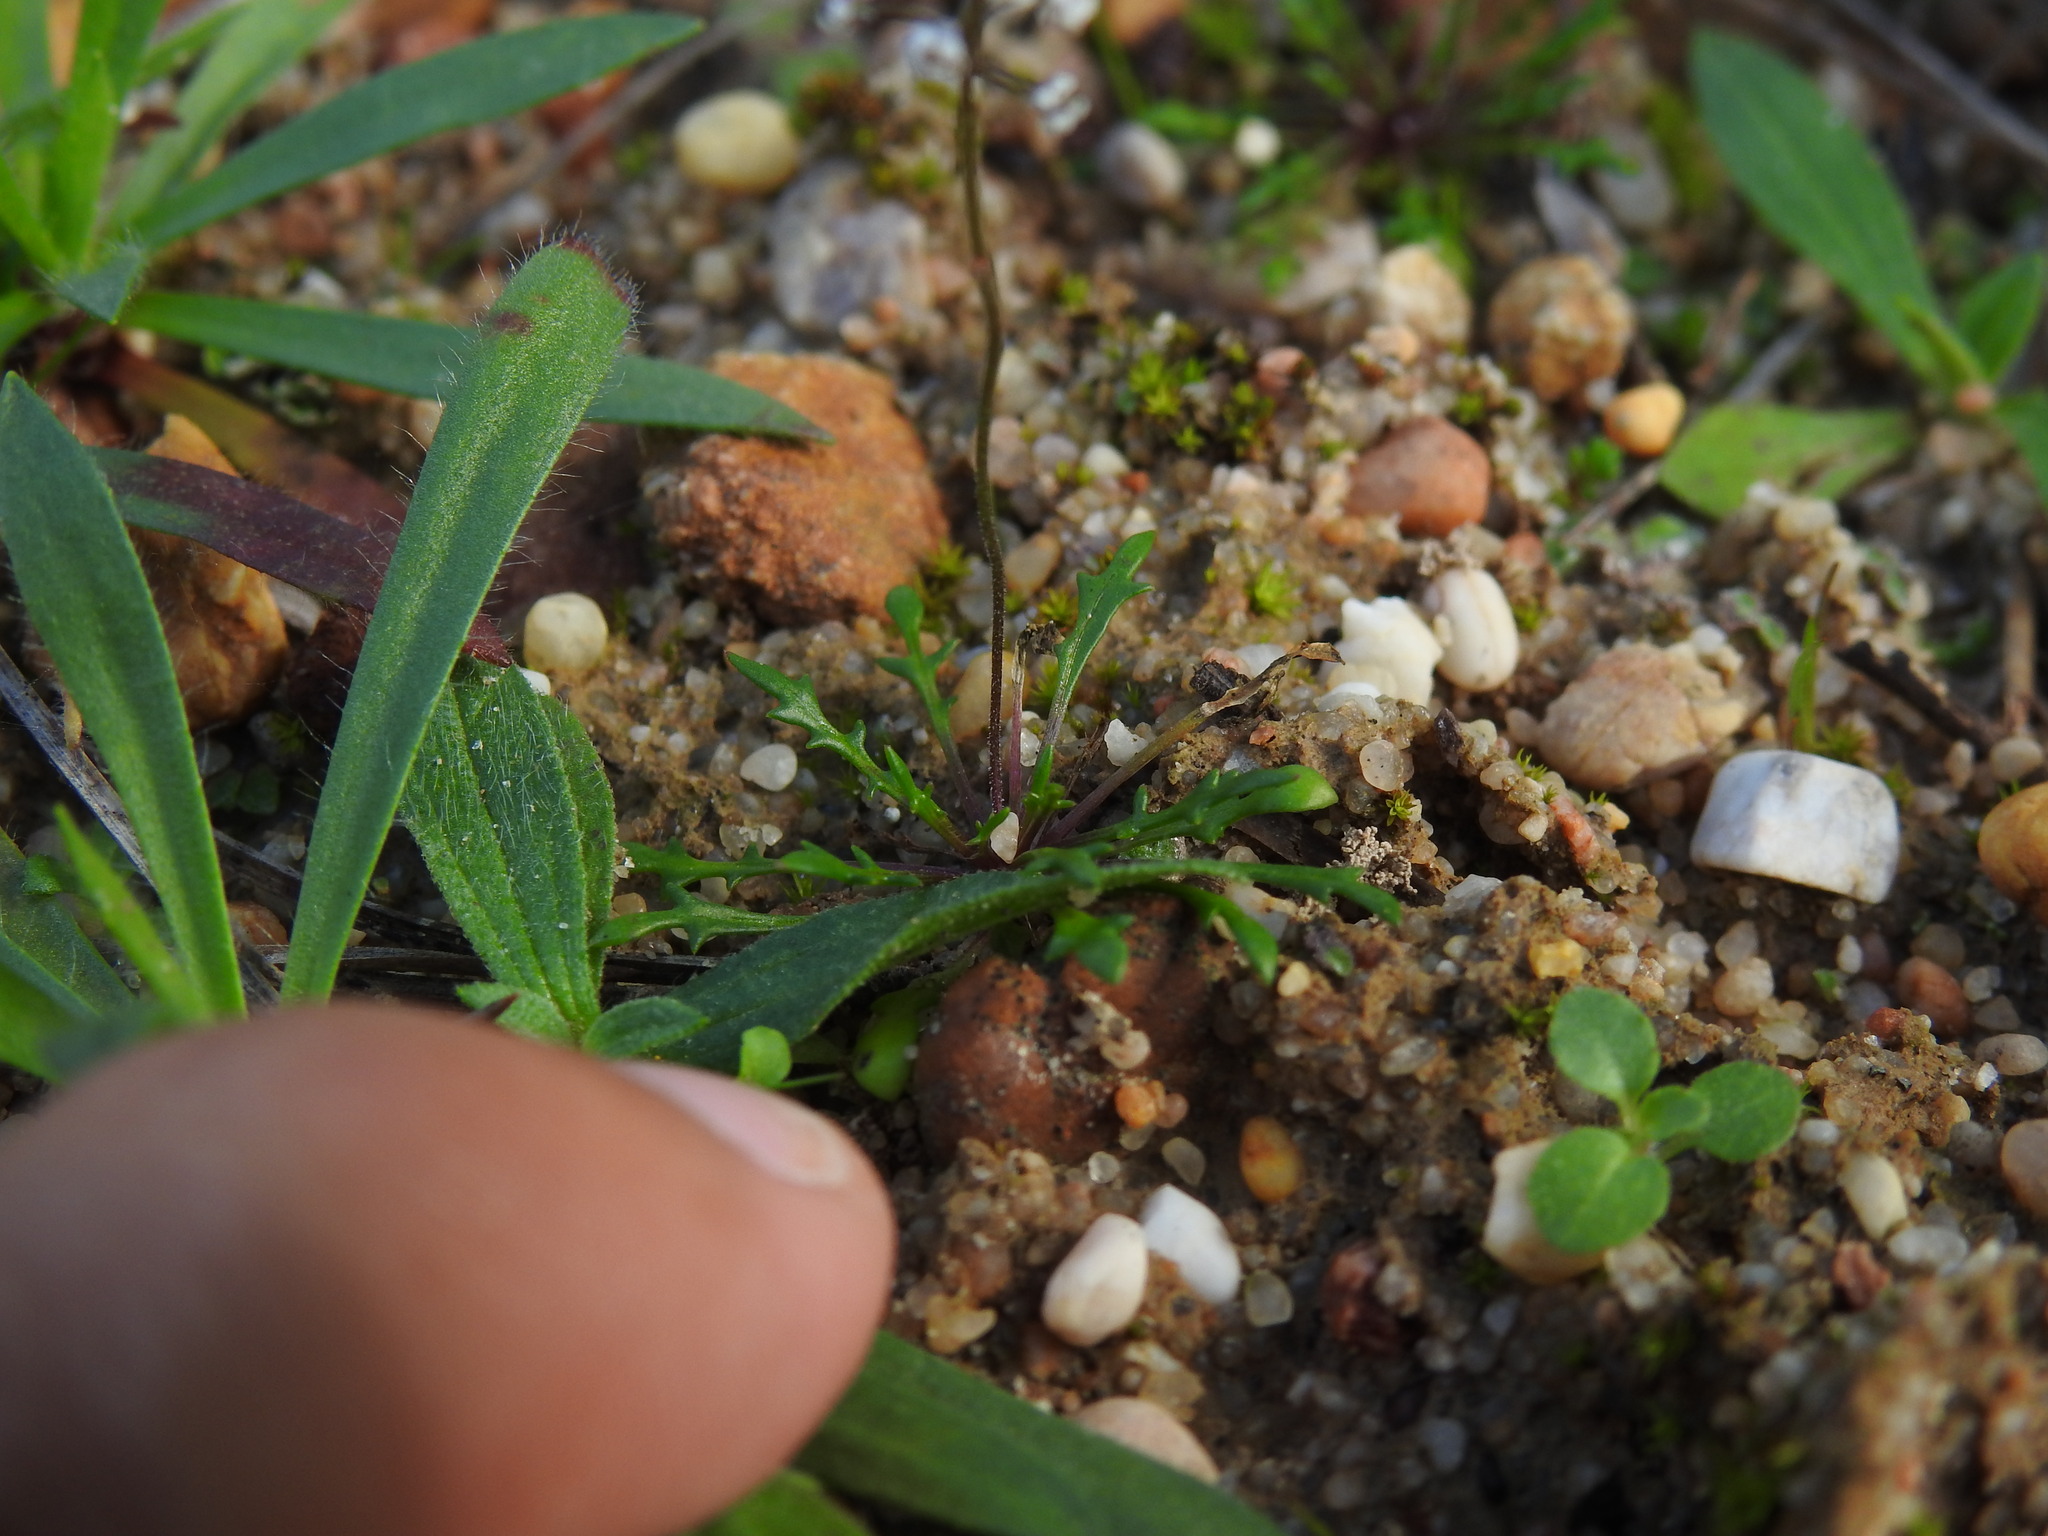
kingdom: Plantae
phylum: Tracheophyta
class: Magnoliopsida
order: Brassicales
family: Brassicaceae
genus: Teesdalia
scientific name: Teesdalia coronopifolia
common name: Lesser shepherdscress
